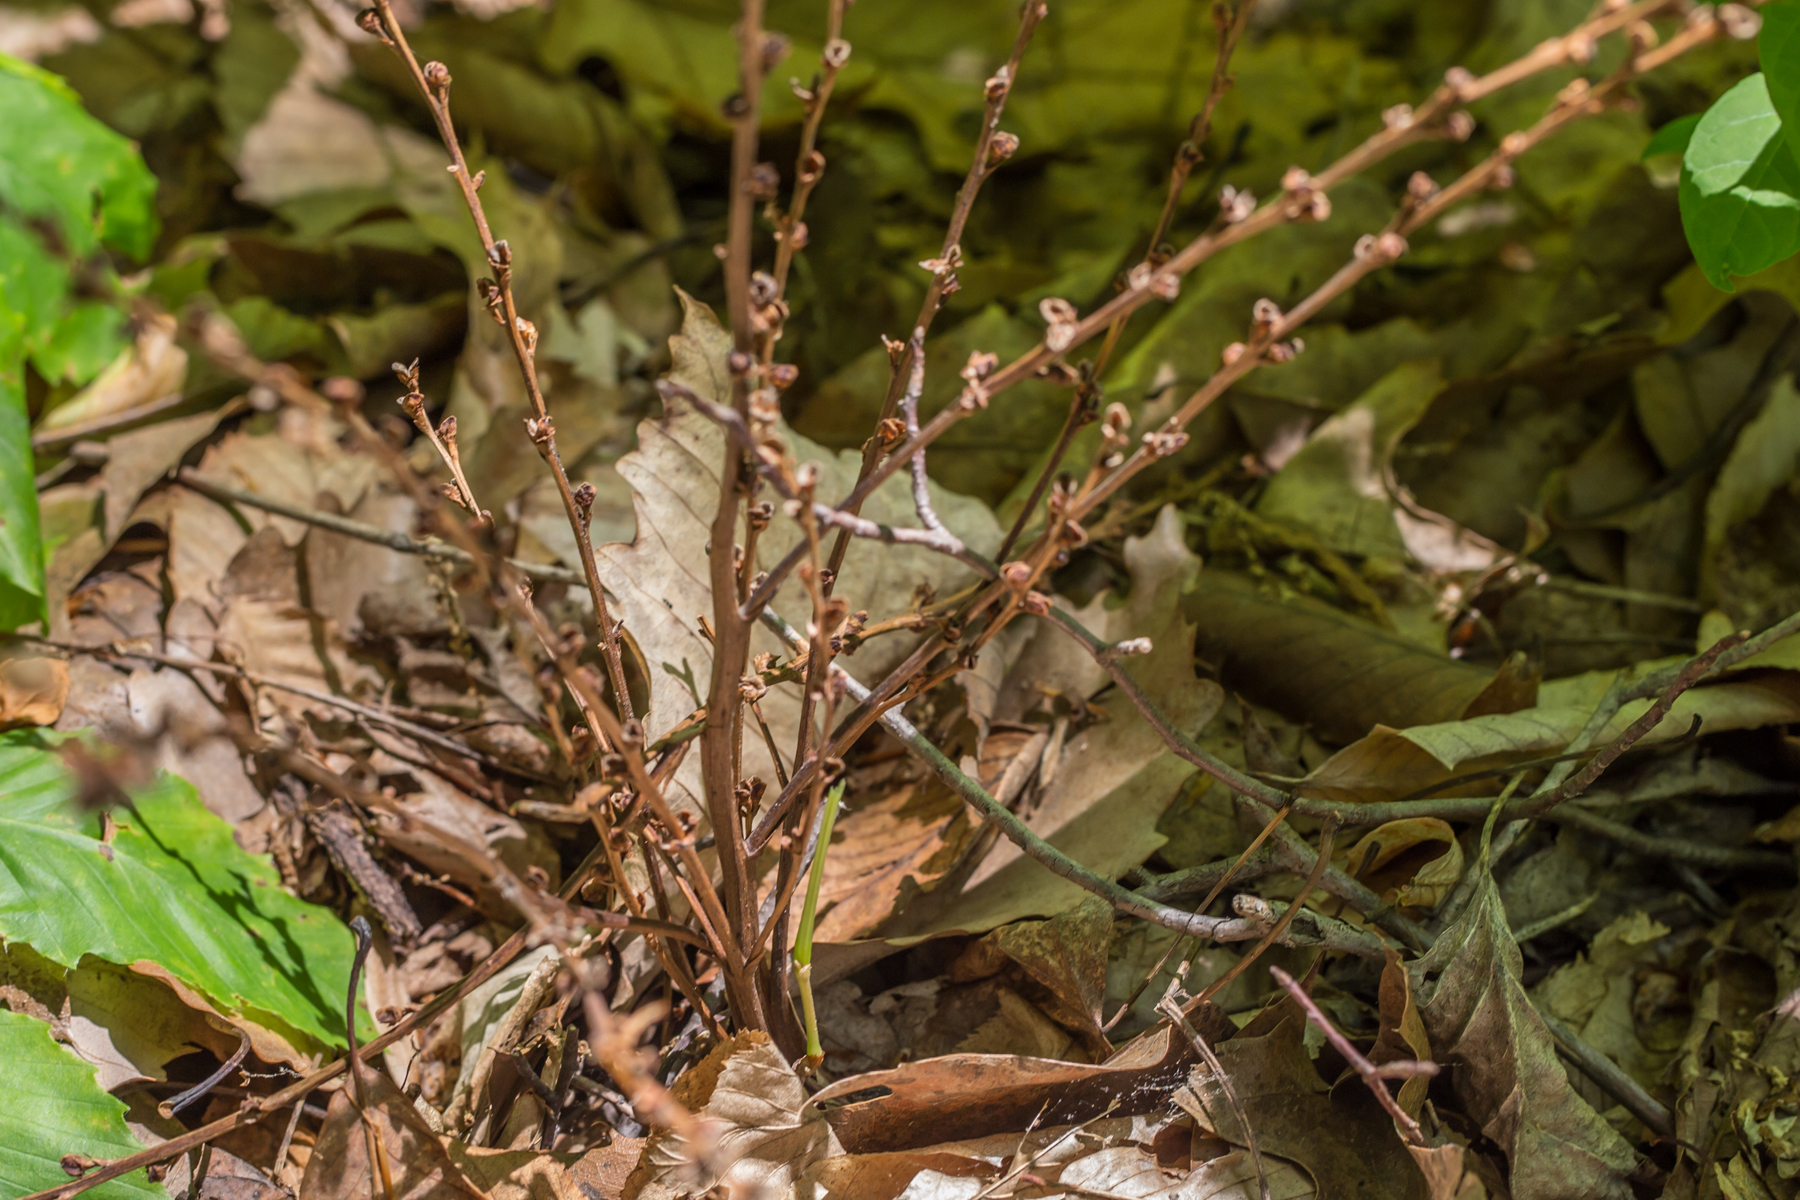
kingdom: Plantae
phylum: Tracheophyta
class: Magnoliopsida
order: Lamiales
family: Orobanchaceae
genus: Epifagus
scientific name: Epifagus virginiana
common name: Beechdrops
